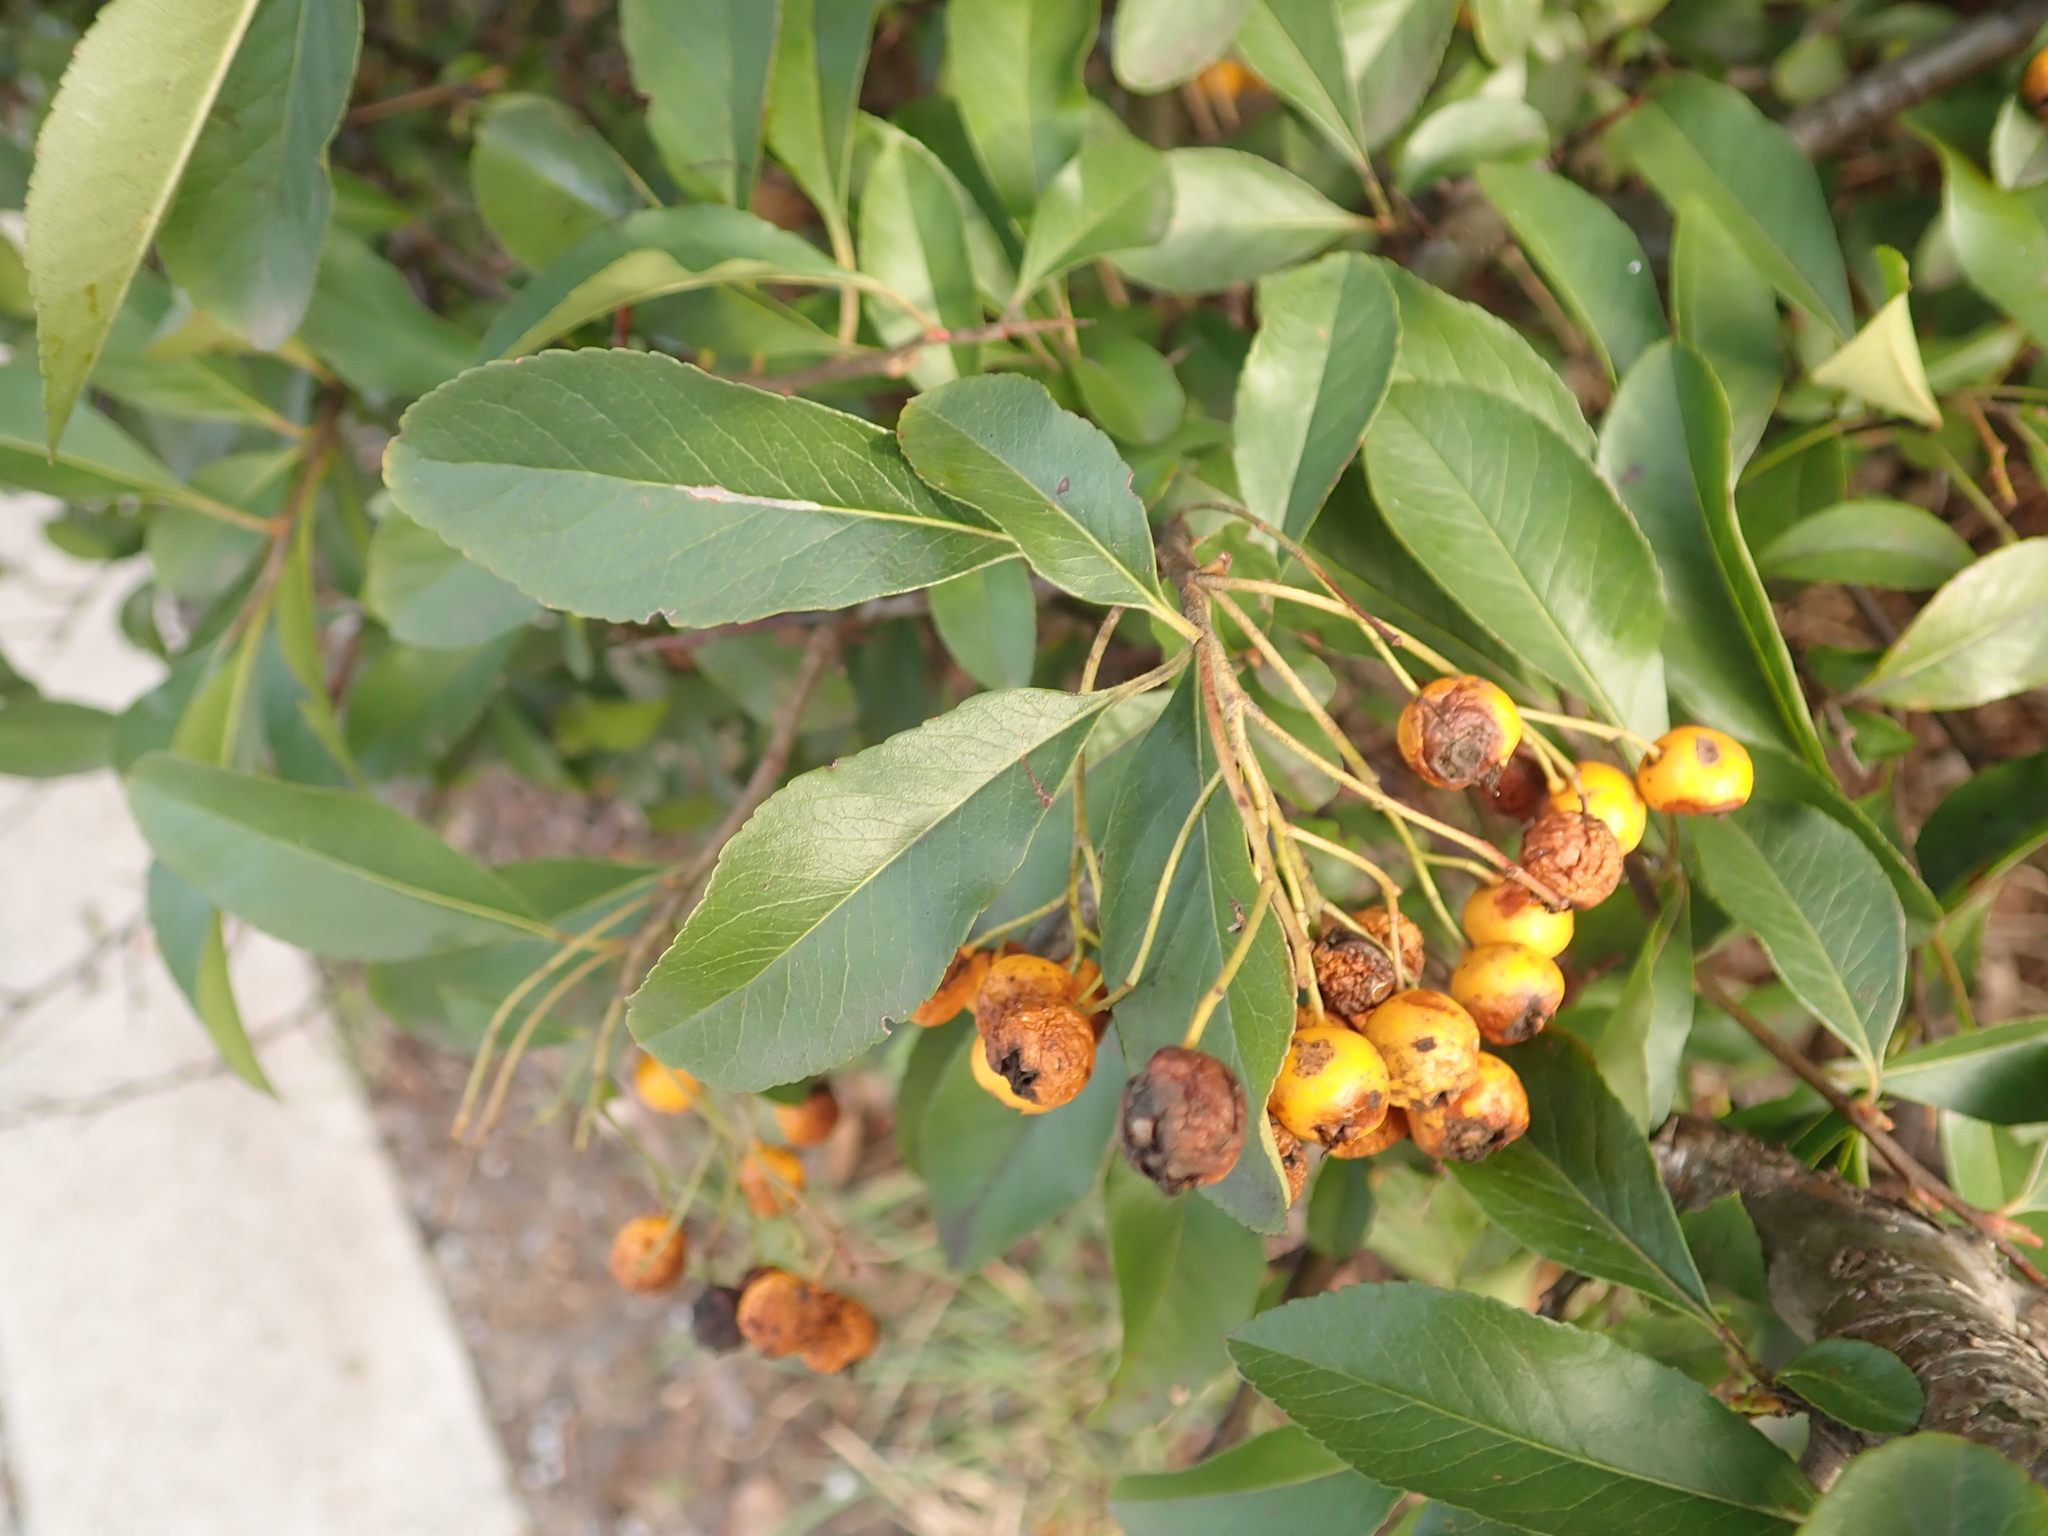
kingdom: Plantae
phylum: Tracheophyta
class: Magnoliopsida
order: Rosales
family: Rosaceae
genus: Pyracantha
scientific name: Pyracantha coccinea
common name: Firethorn
